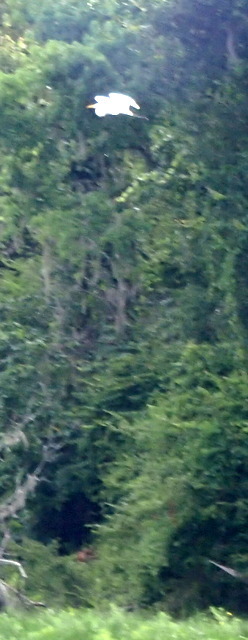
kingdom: Animalia
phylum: Chordata
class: Aves
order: Pelecaniformes
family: Ardeidae
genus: Ardea
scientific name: Ardea alba
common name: Great egret
